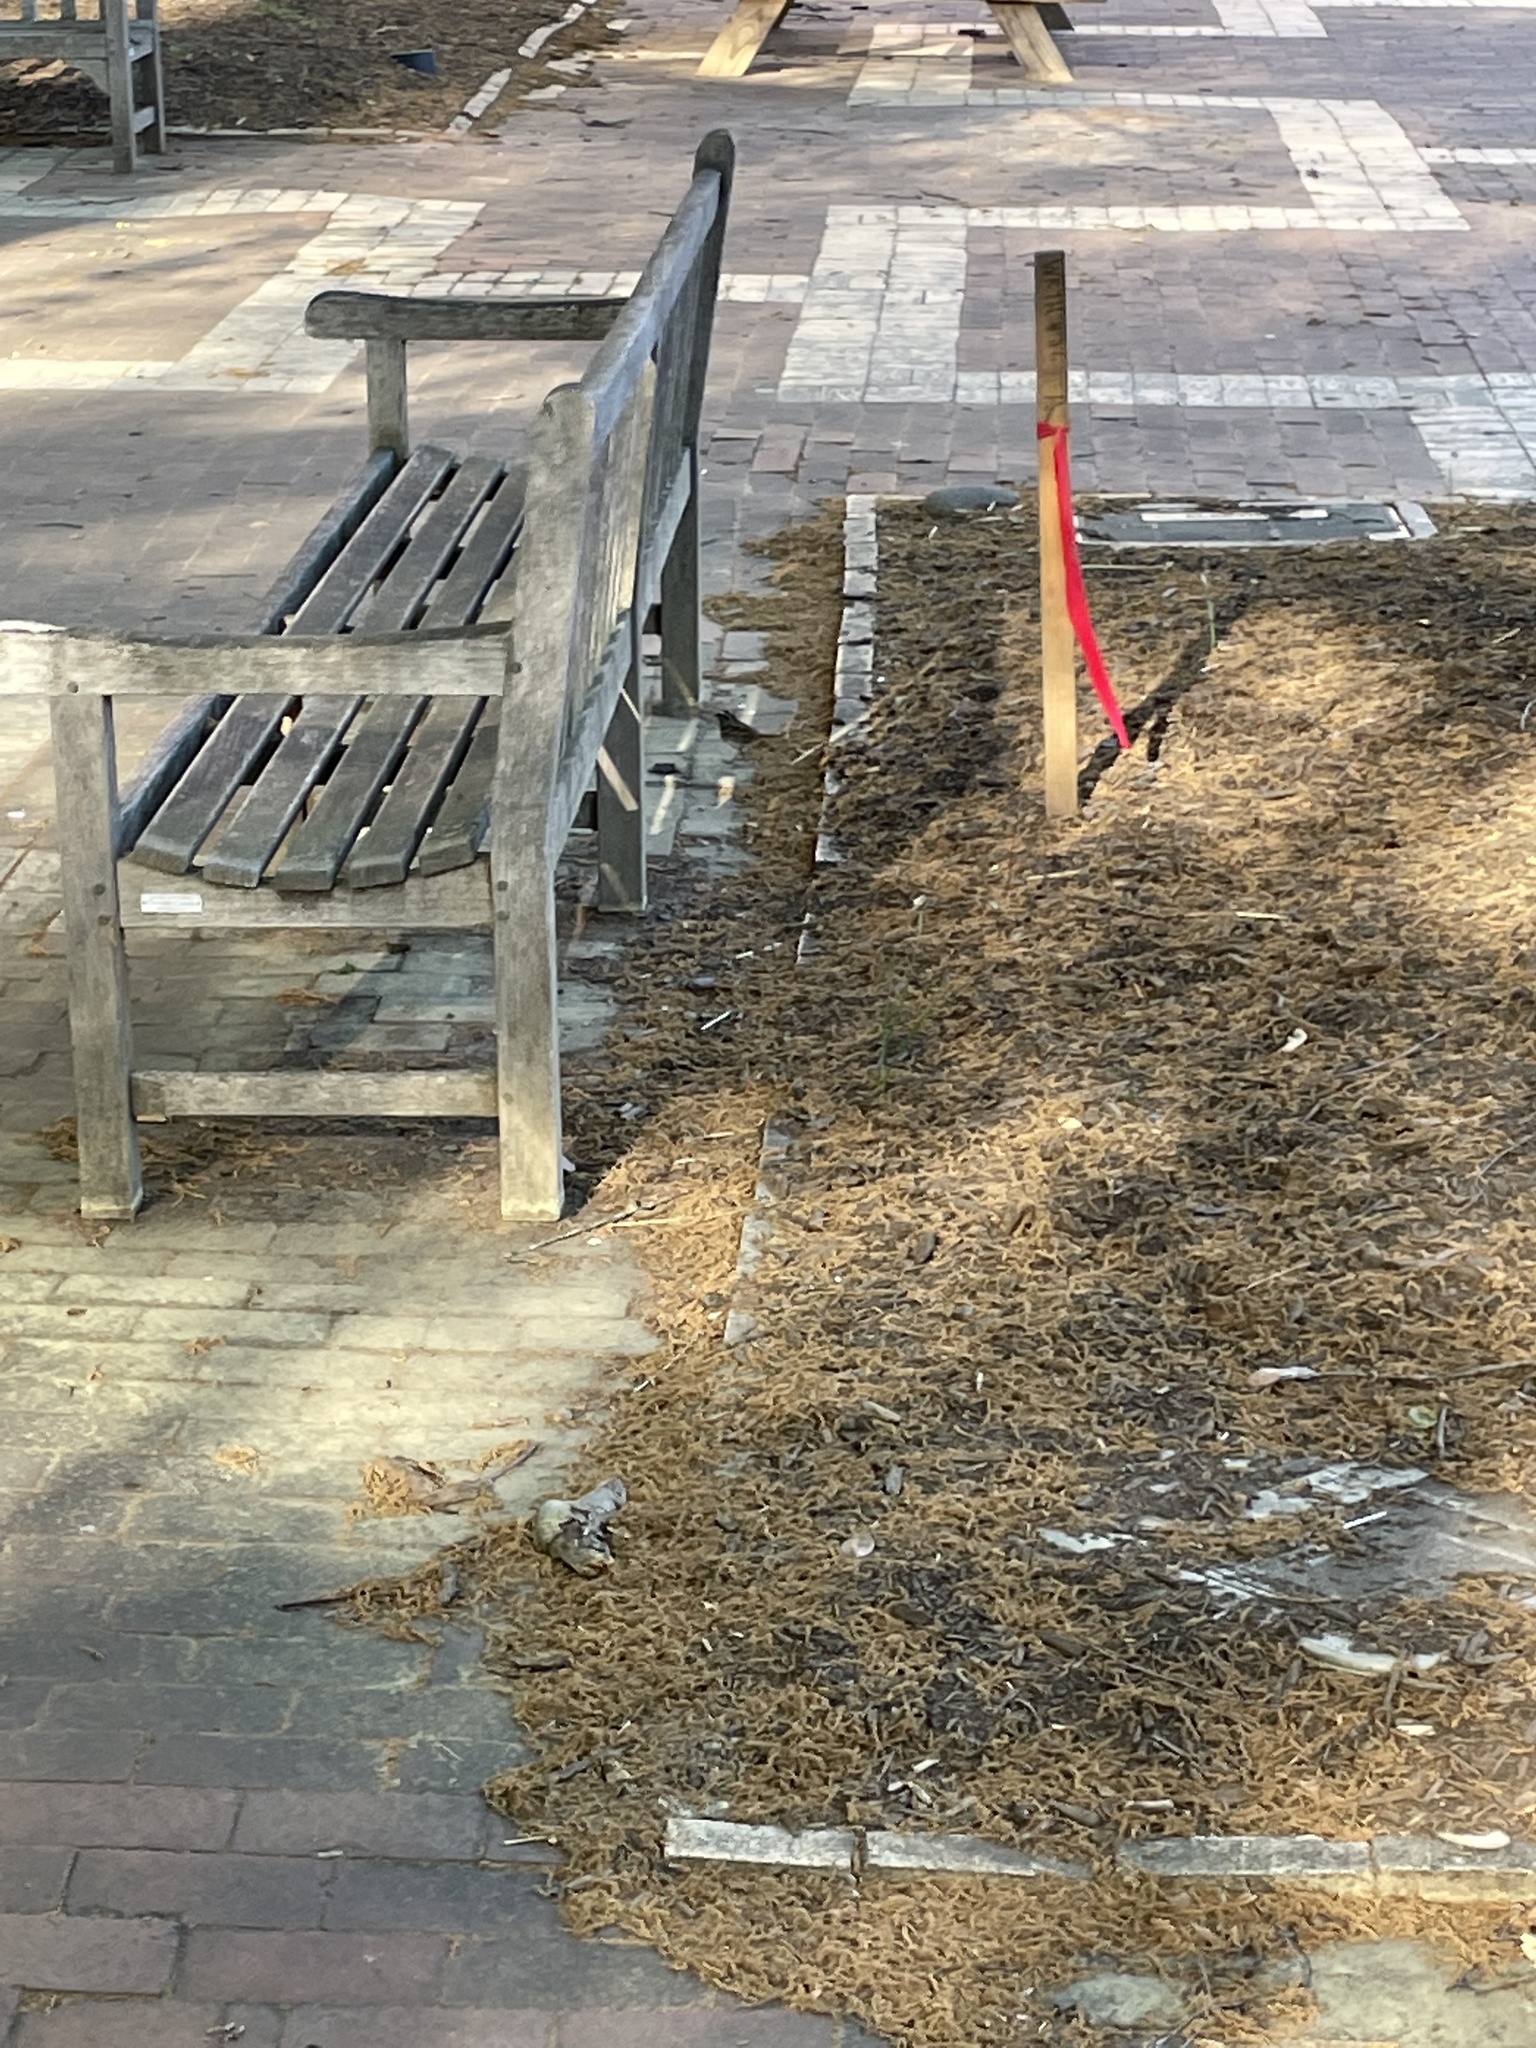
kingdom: Animalia
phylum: Chordata
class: Aves
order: Passeriformes
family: Passerellidae
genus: Zonotrichia
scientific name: Zonotrichia albicollis
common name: White-throated sparrow
